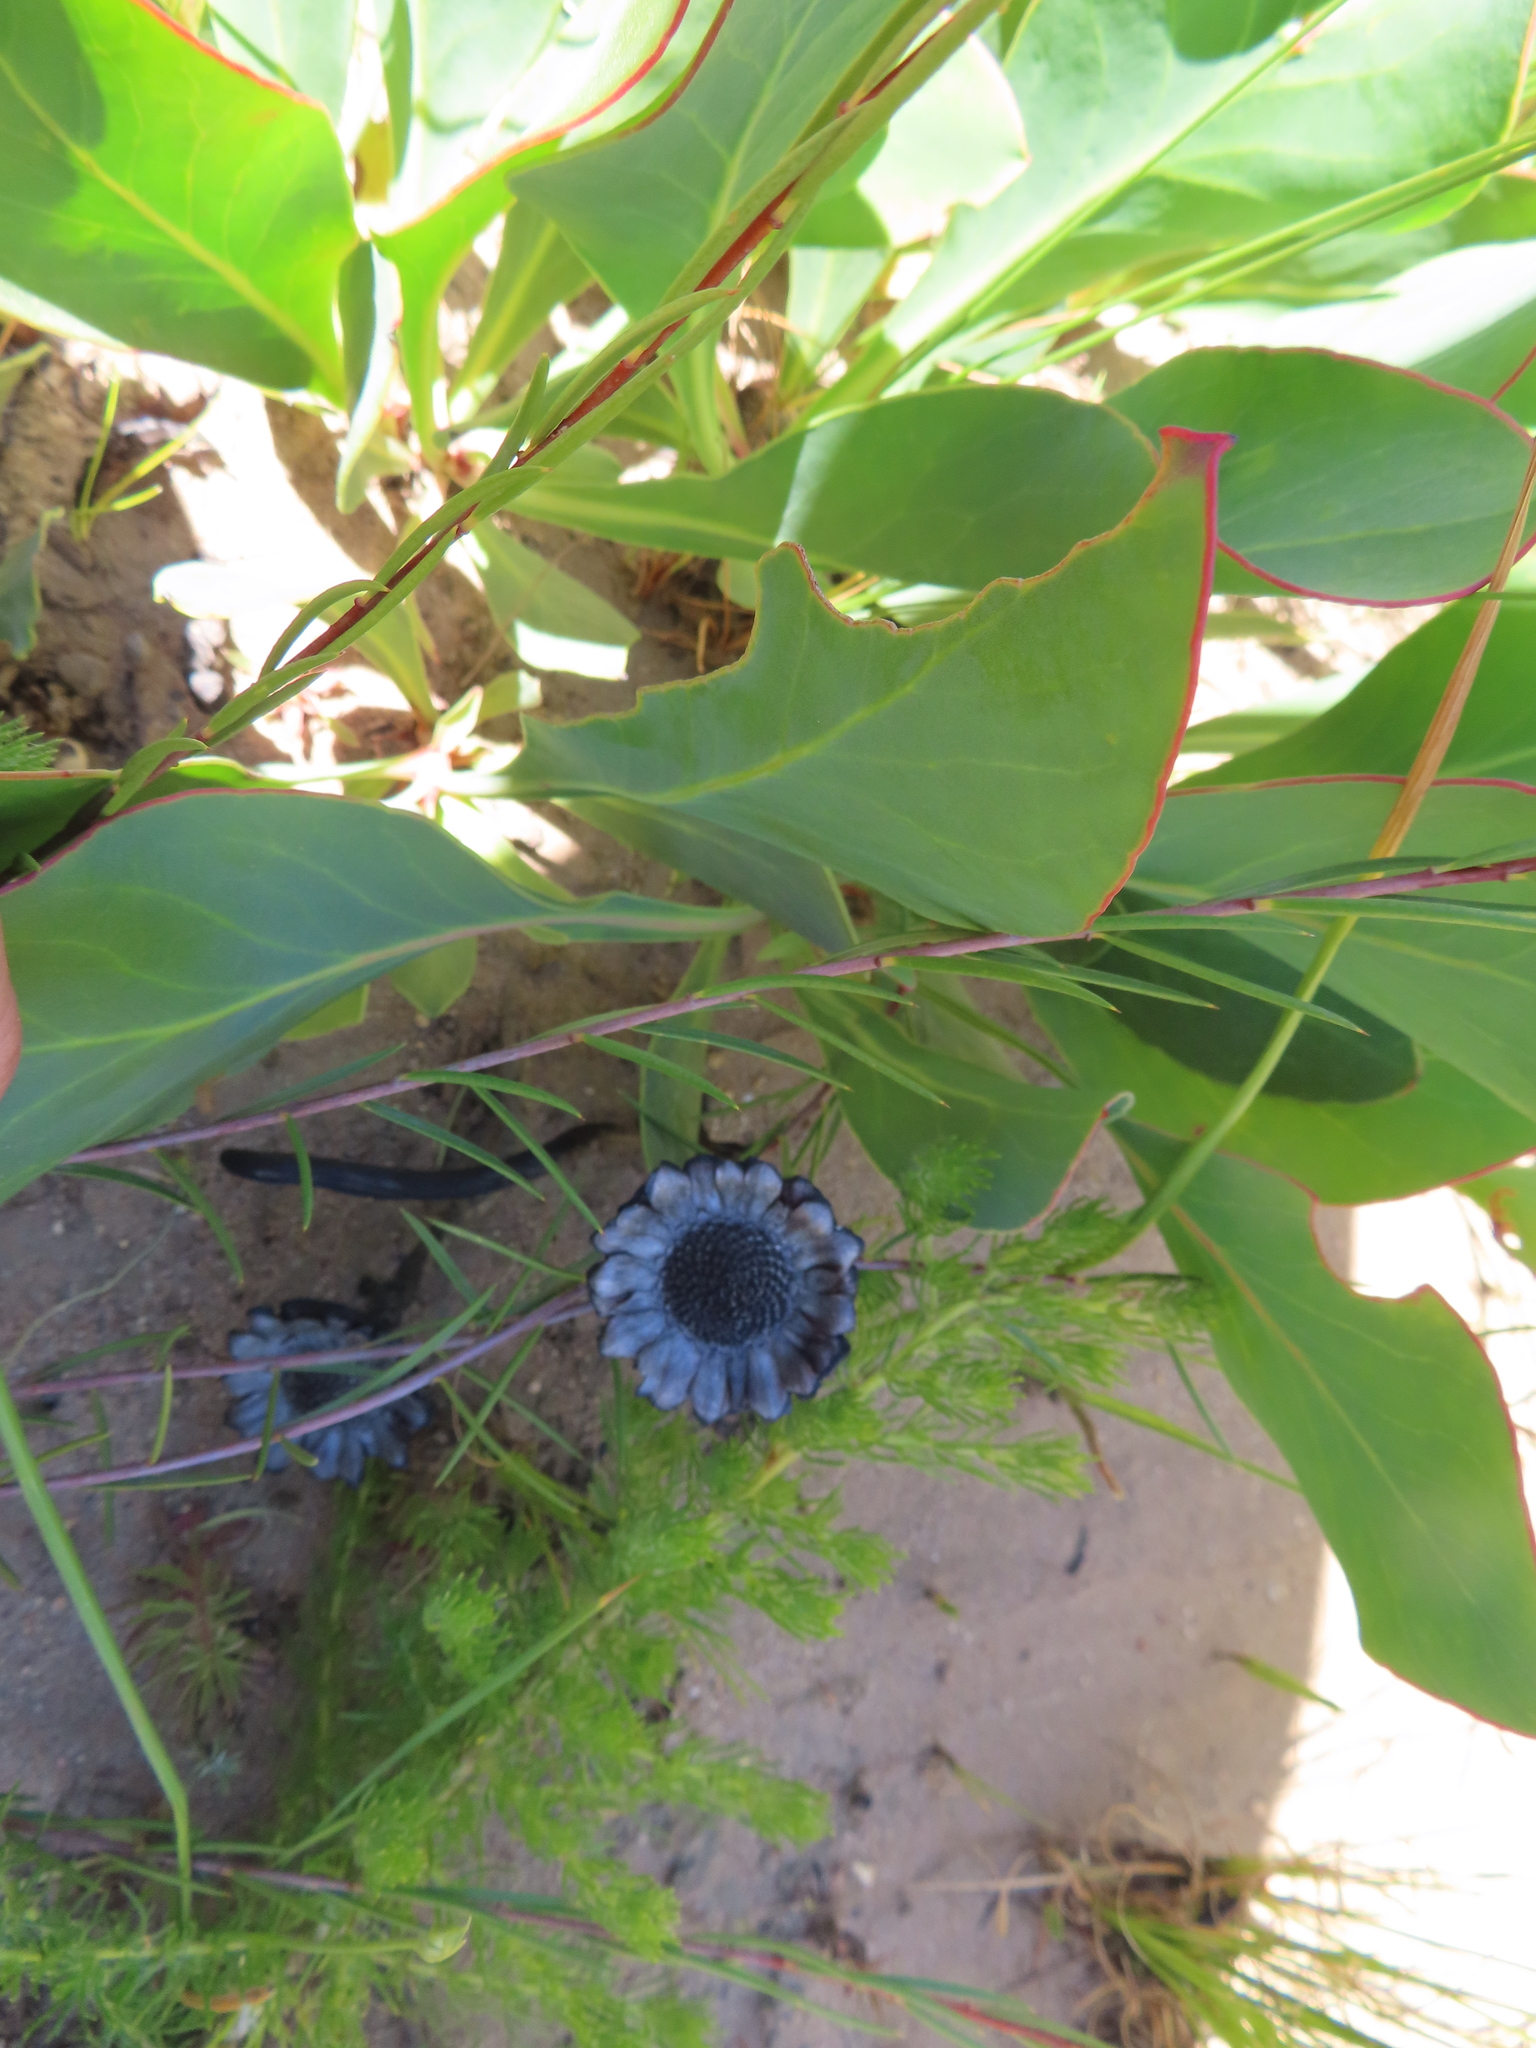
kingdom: Plantae
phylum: Tracheophyta
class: Magnoliopsida
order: Proteales
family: Proteaceae
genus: Protea
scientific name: Protea acaulos
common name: Common ground sugarbush
